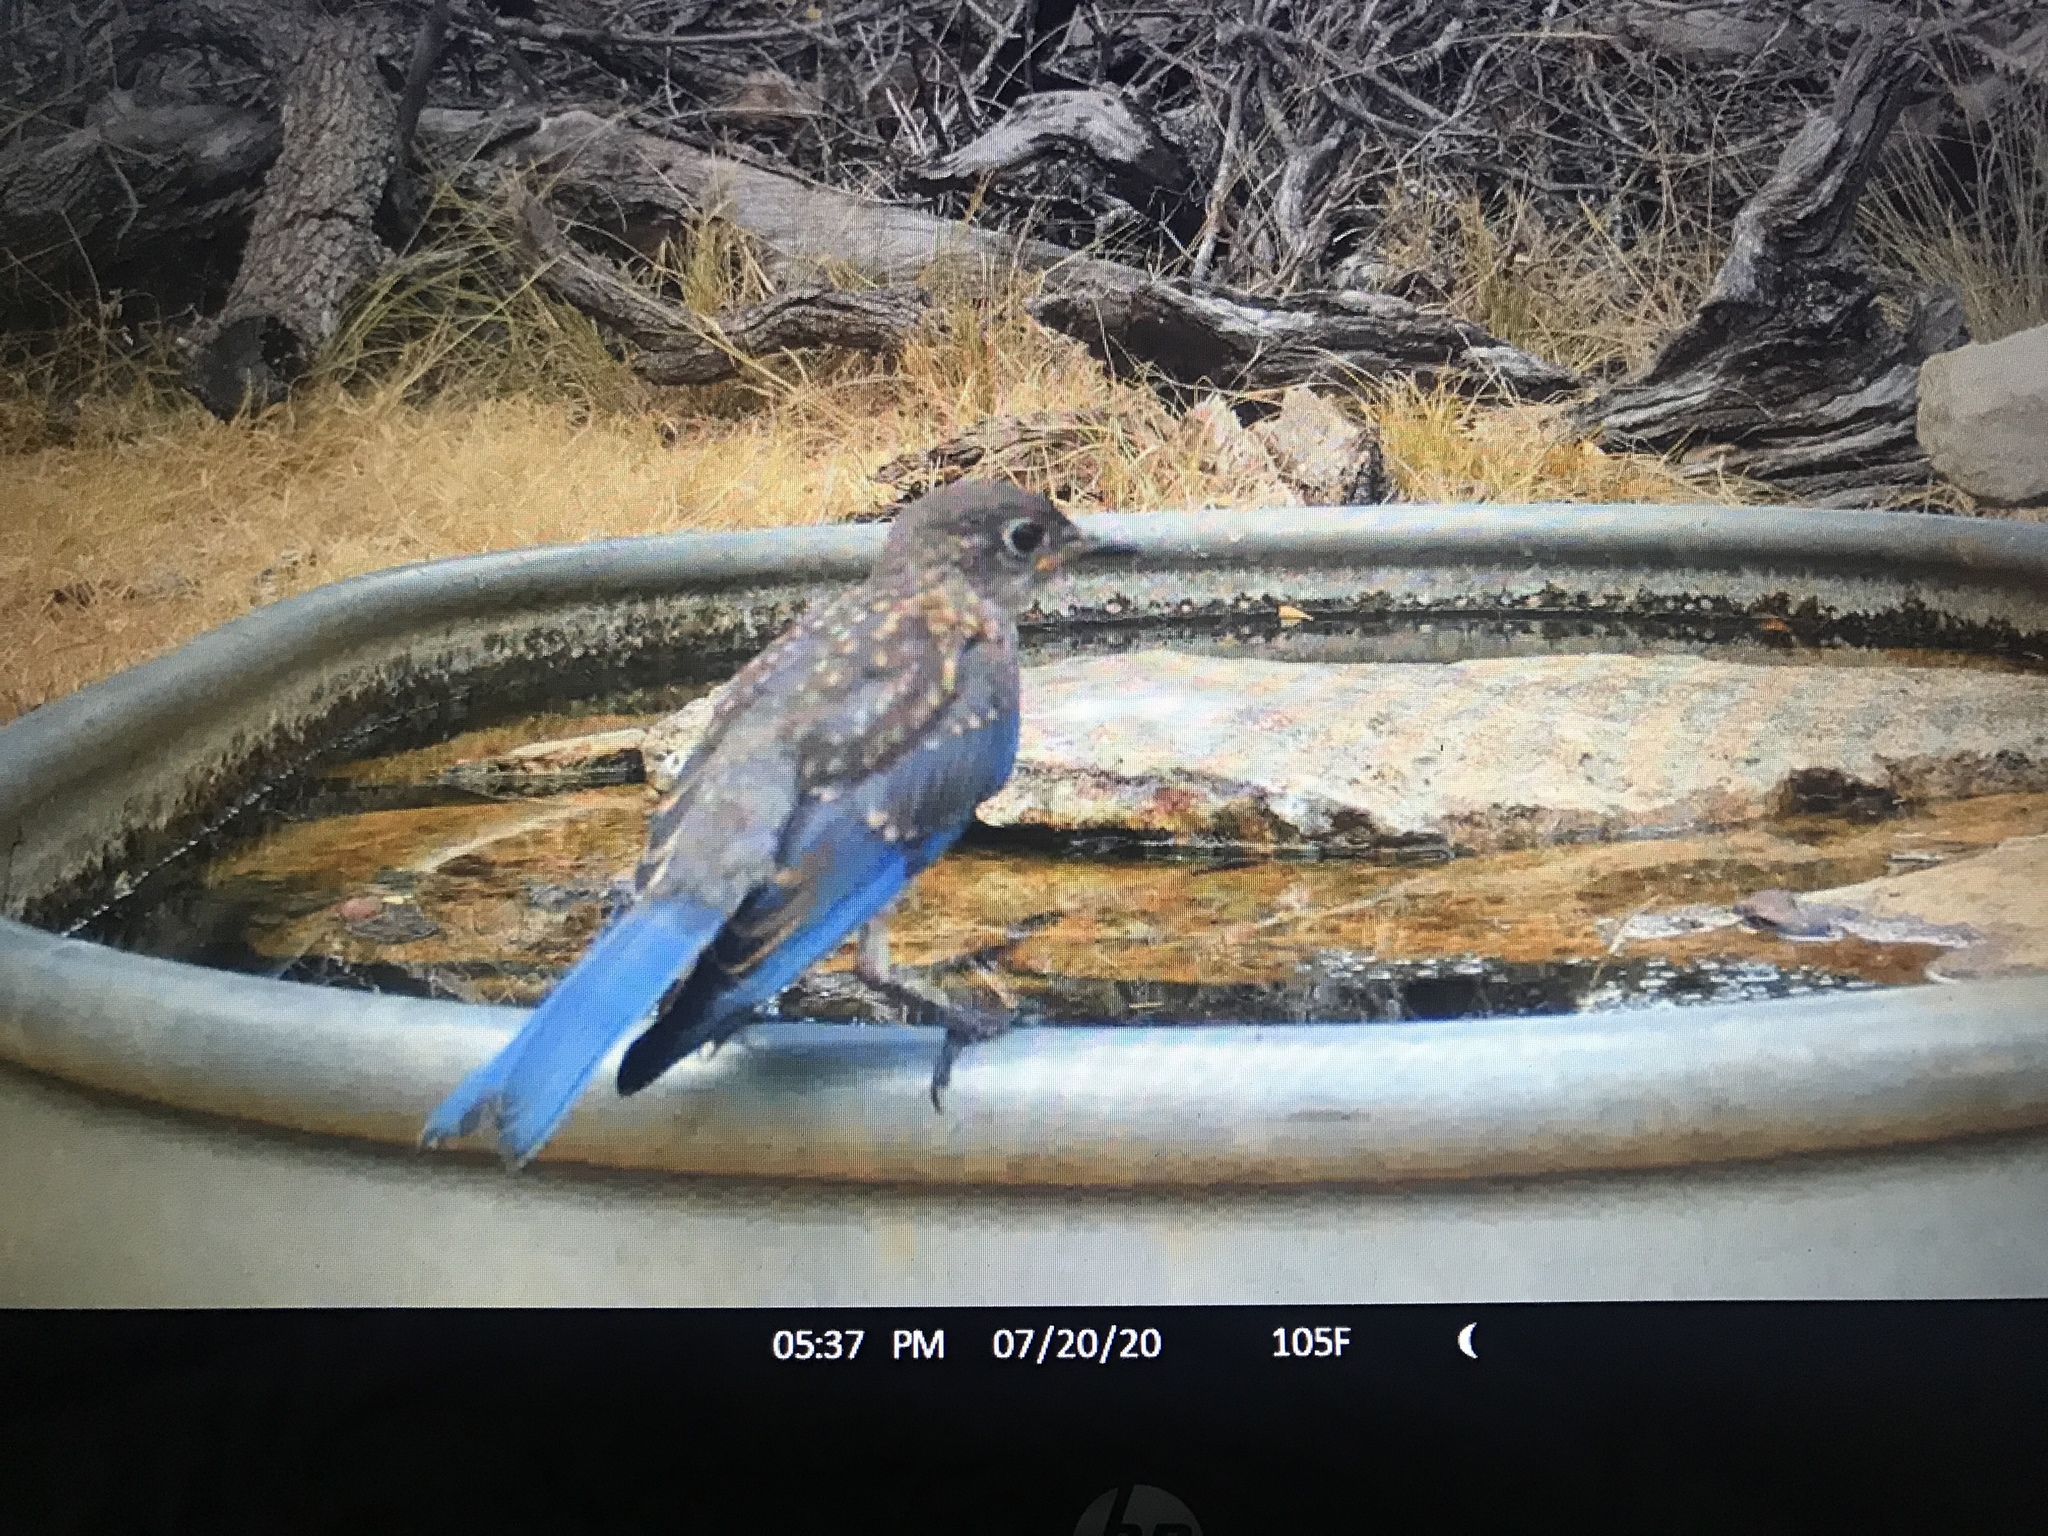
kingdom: Animalia
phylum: Chordata
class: Aves
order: Passeriformes
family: Turdidae
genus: Sialia
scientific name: Sialia sialis
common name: Eastern bluebird
